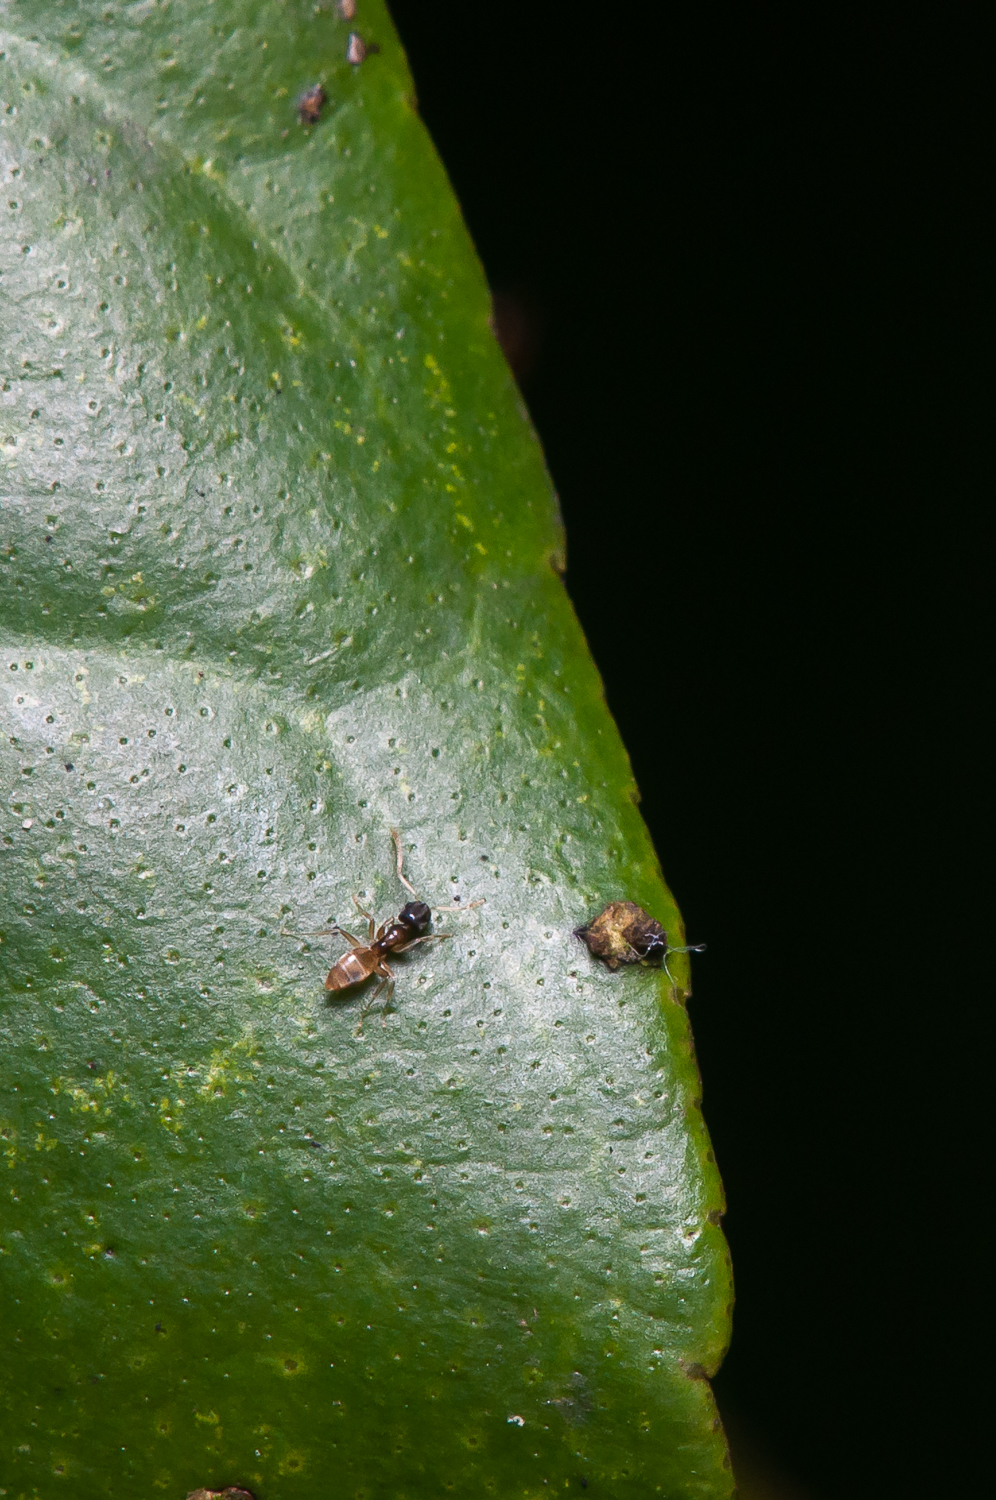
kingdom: Animalia
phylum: Arthropoda
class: Insecta
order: Hymenoptera
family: Formicidae
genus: Tapinoma
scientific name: Tapinoma melanocephalum
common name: Ghost ant
